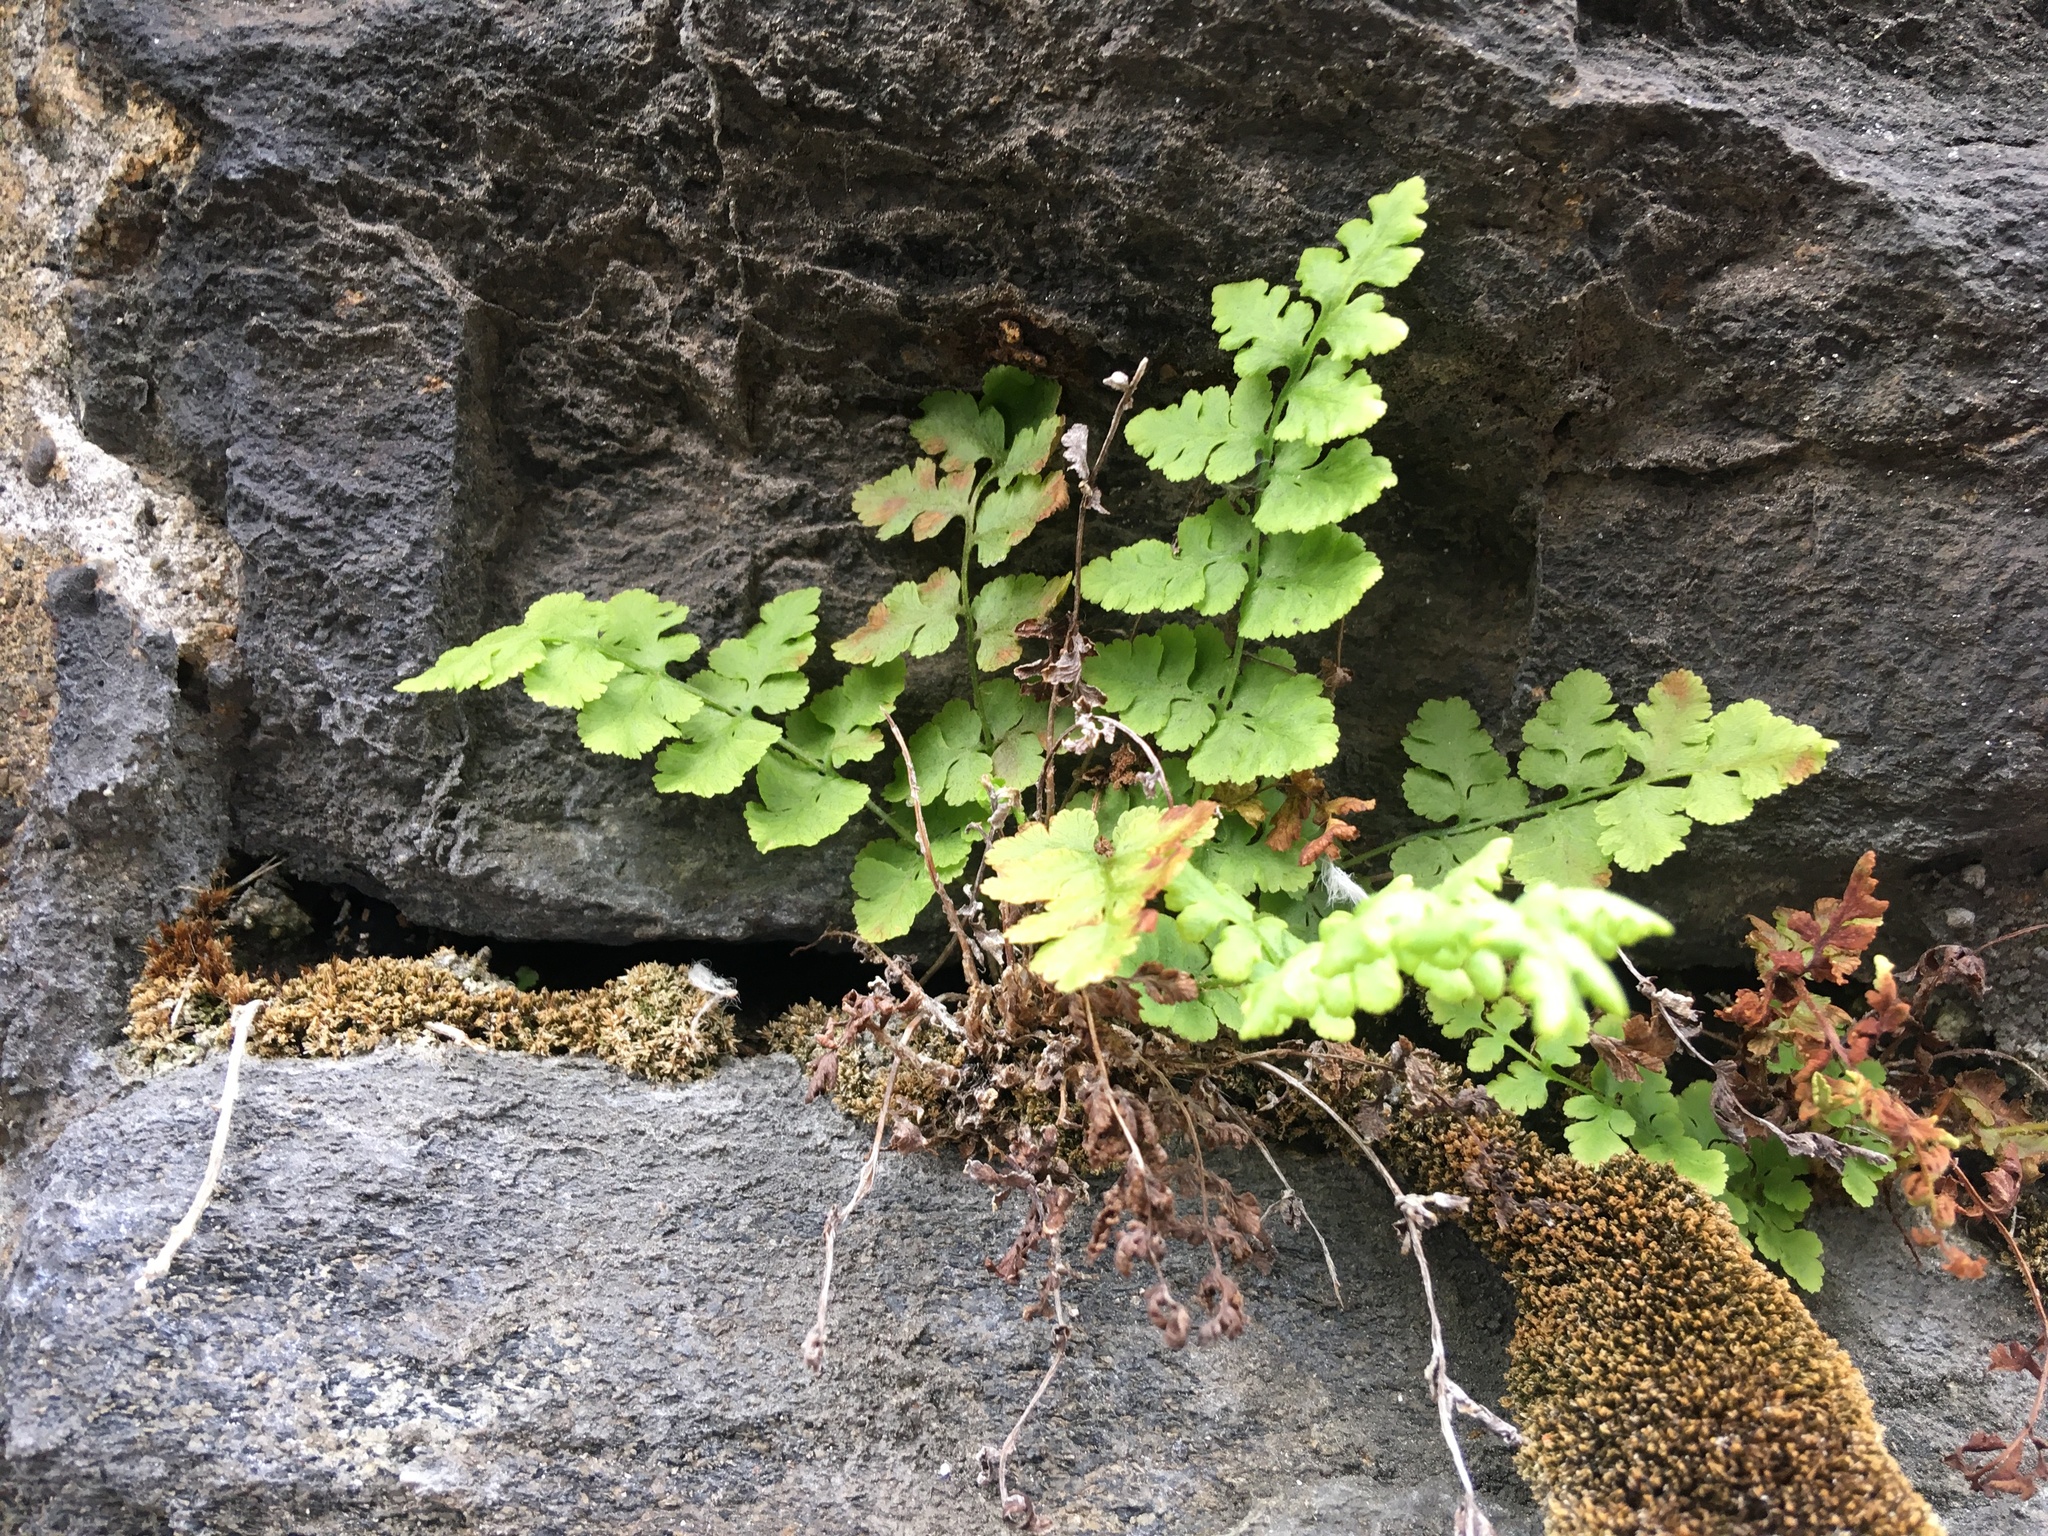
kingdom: Plantae
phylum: Tracheophyta
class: Polypodiopsida
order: Polypodiales
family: Woodsiaceae
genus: Physematium
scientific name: Physematium obtusum
